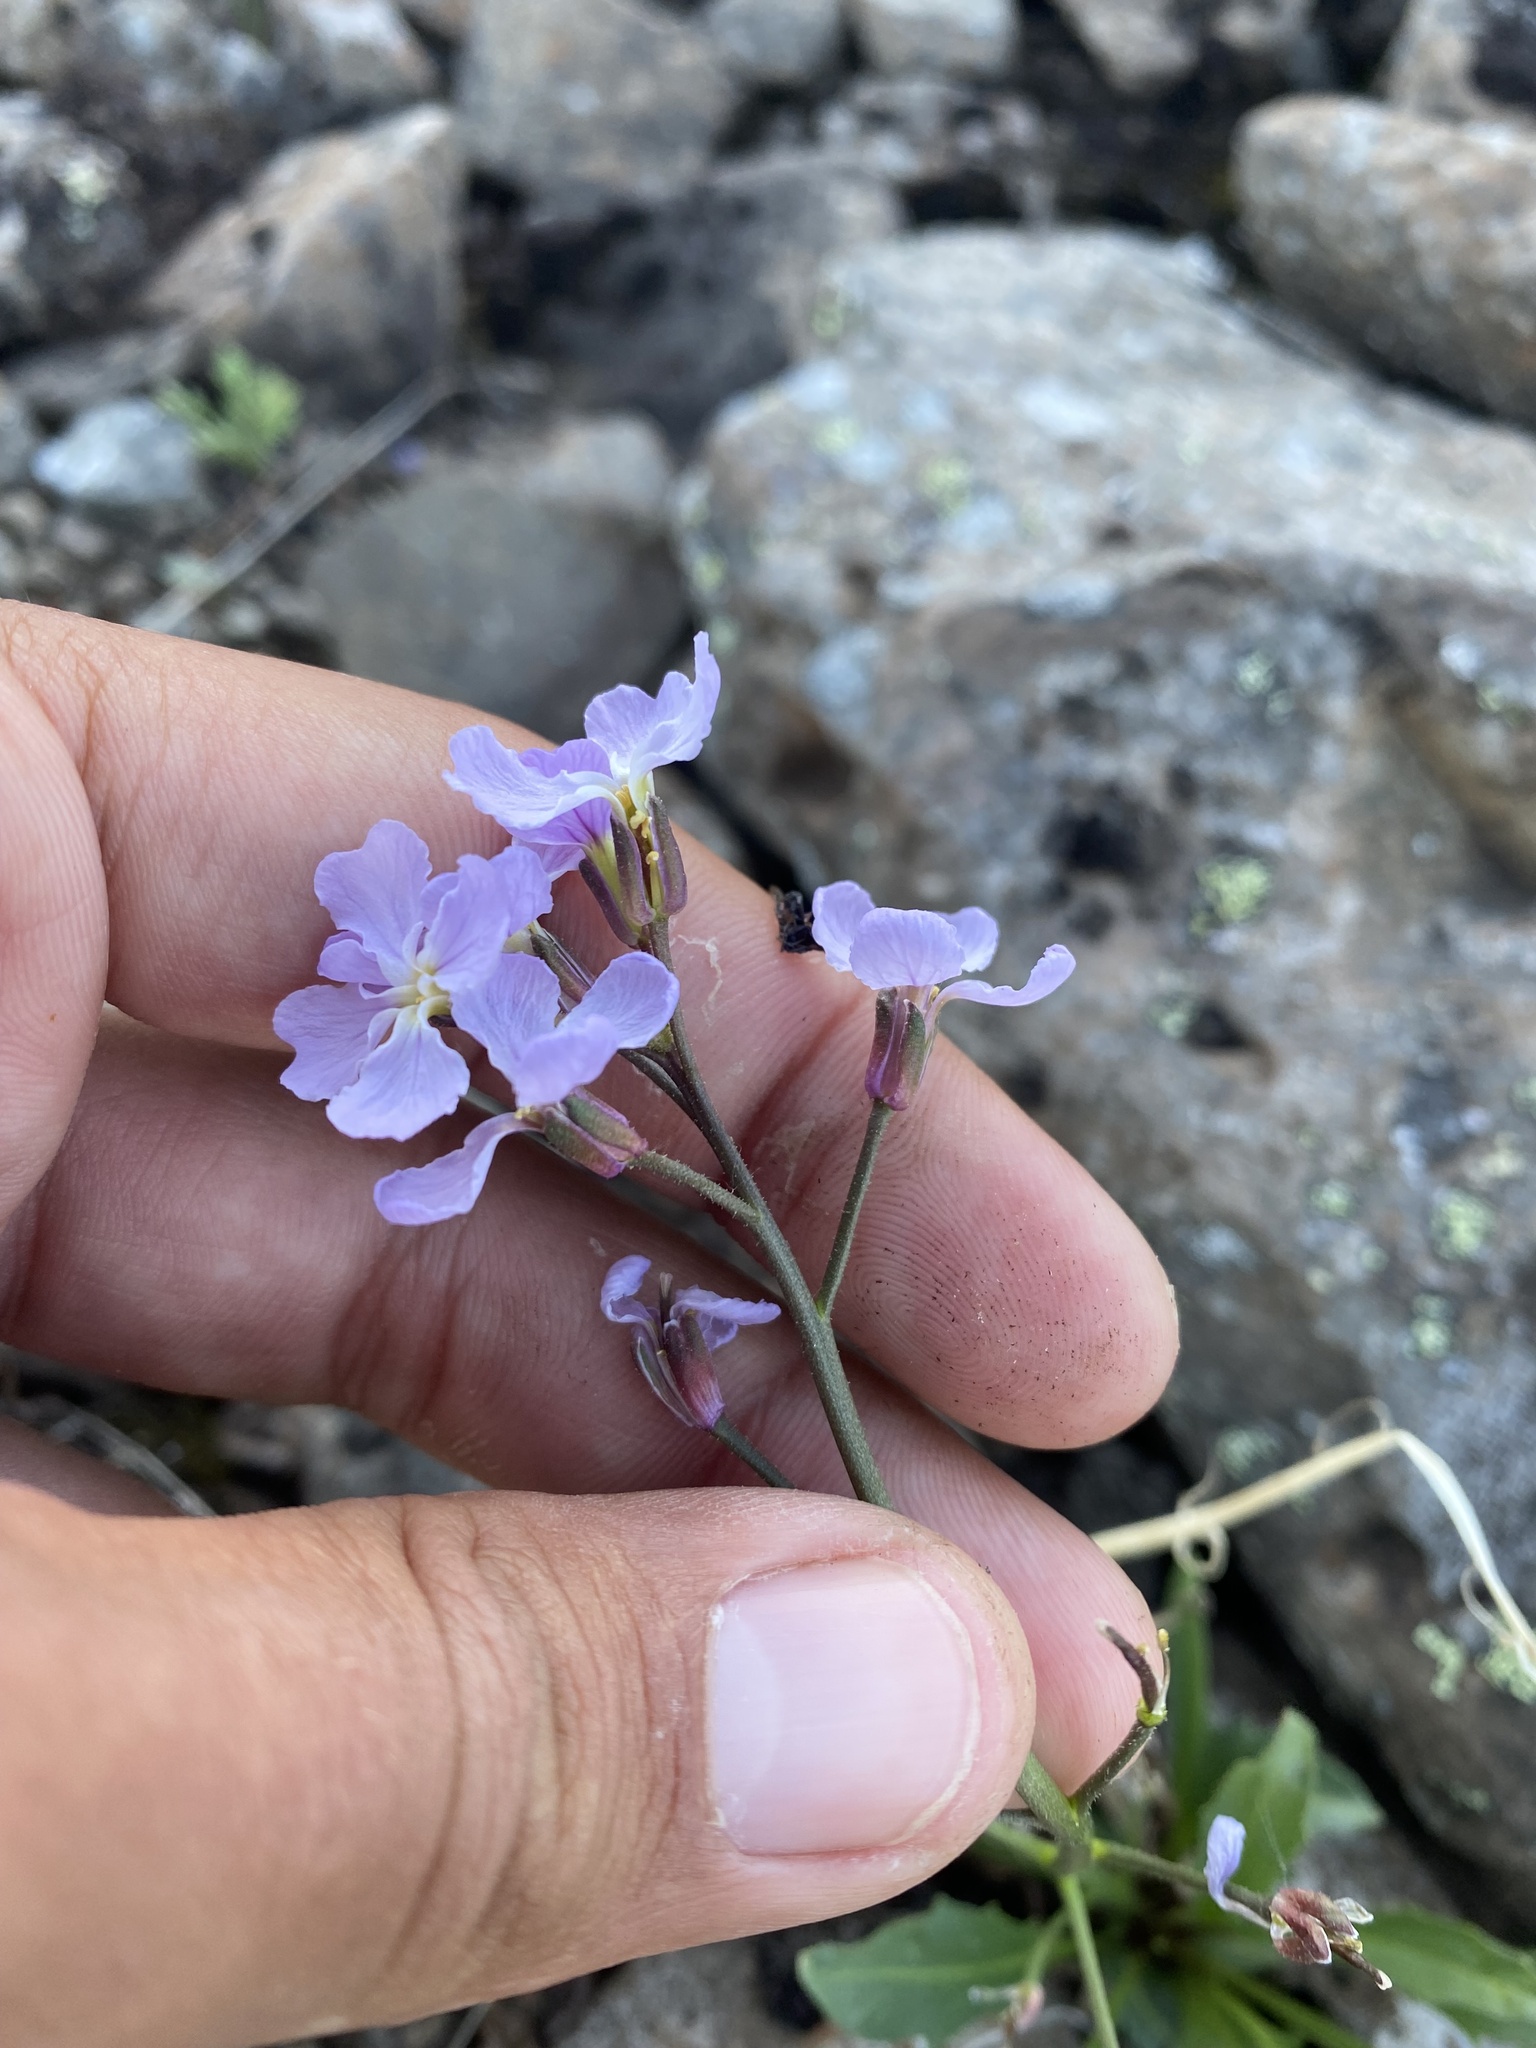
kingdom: Plantae
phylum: Tracheophyta
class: Magnoliopsida
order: Brassicales
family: Brassicaceae
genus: Parrya
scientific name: Parrya nudicaulis
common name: Naked-stemmed false wallflower
